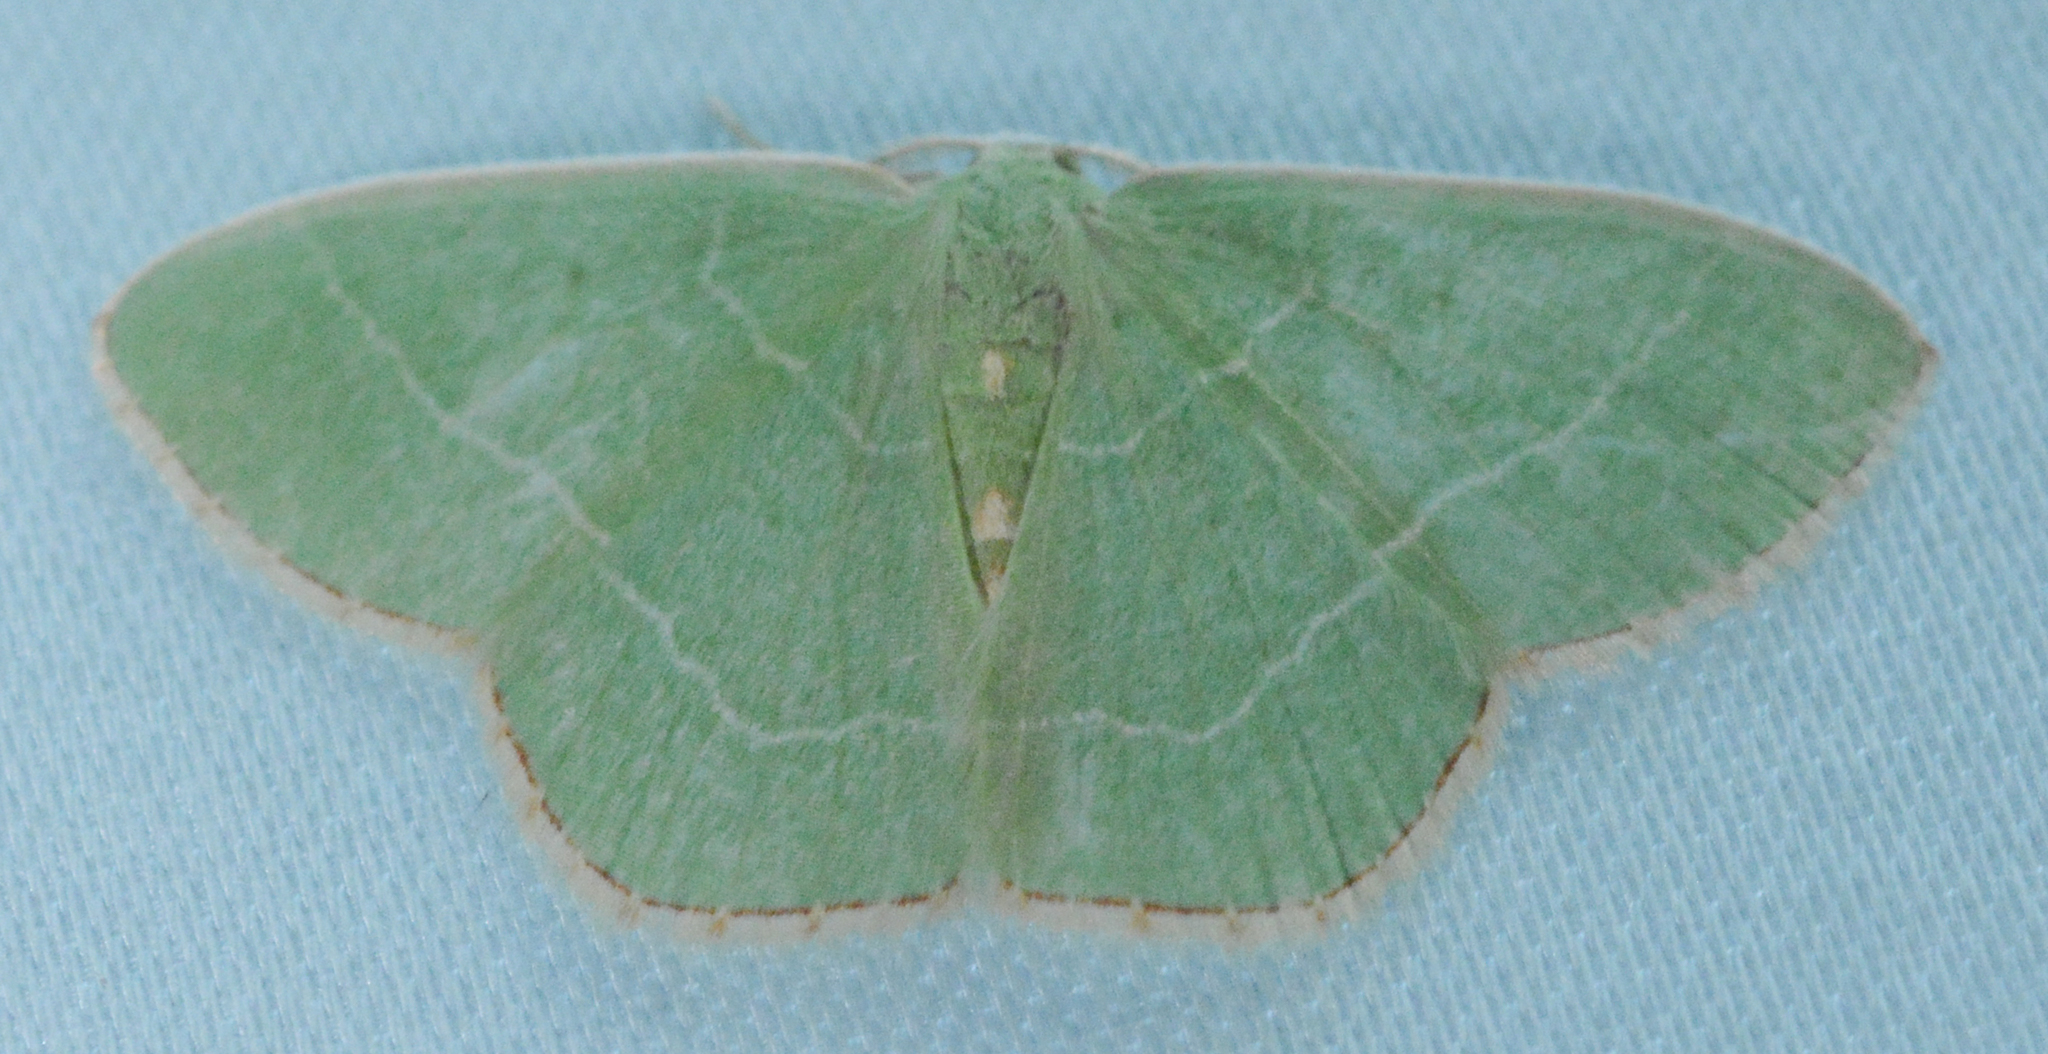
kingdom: Animalia
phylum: Arthropoda
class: Insecta
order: Lepidoptera
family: Geometridae
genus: Nemoria
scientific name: Nemoria bistriaria
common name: Red-fringed emerald
